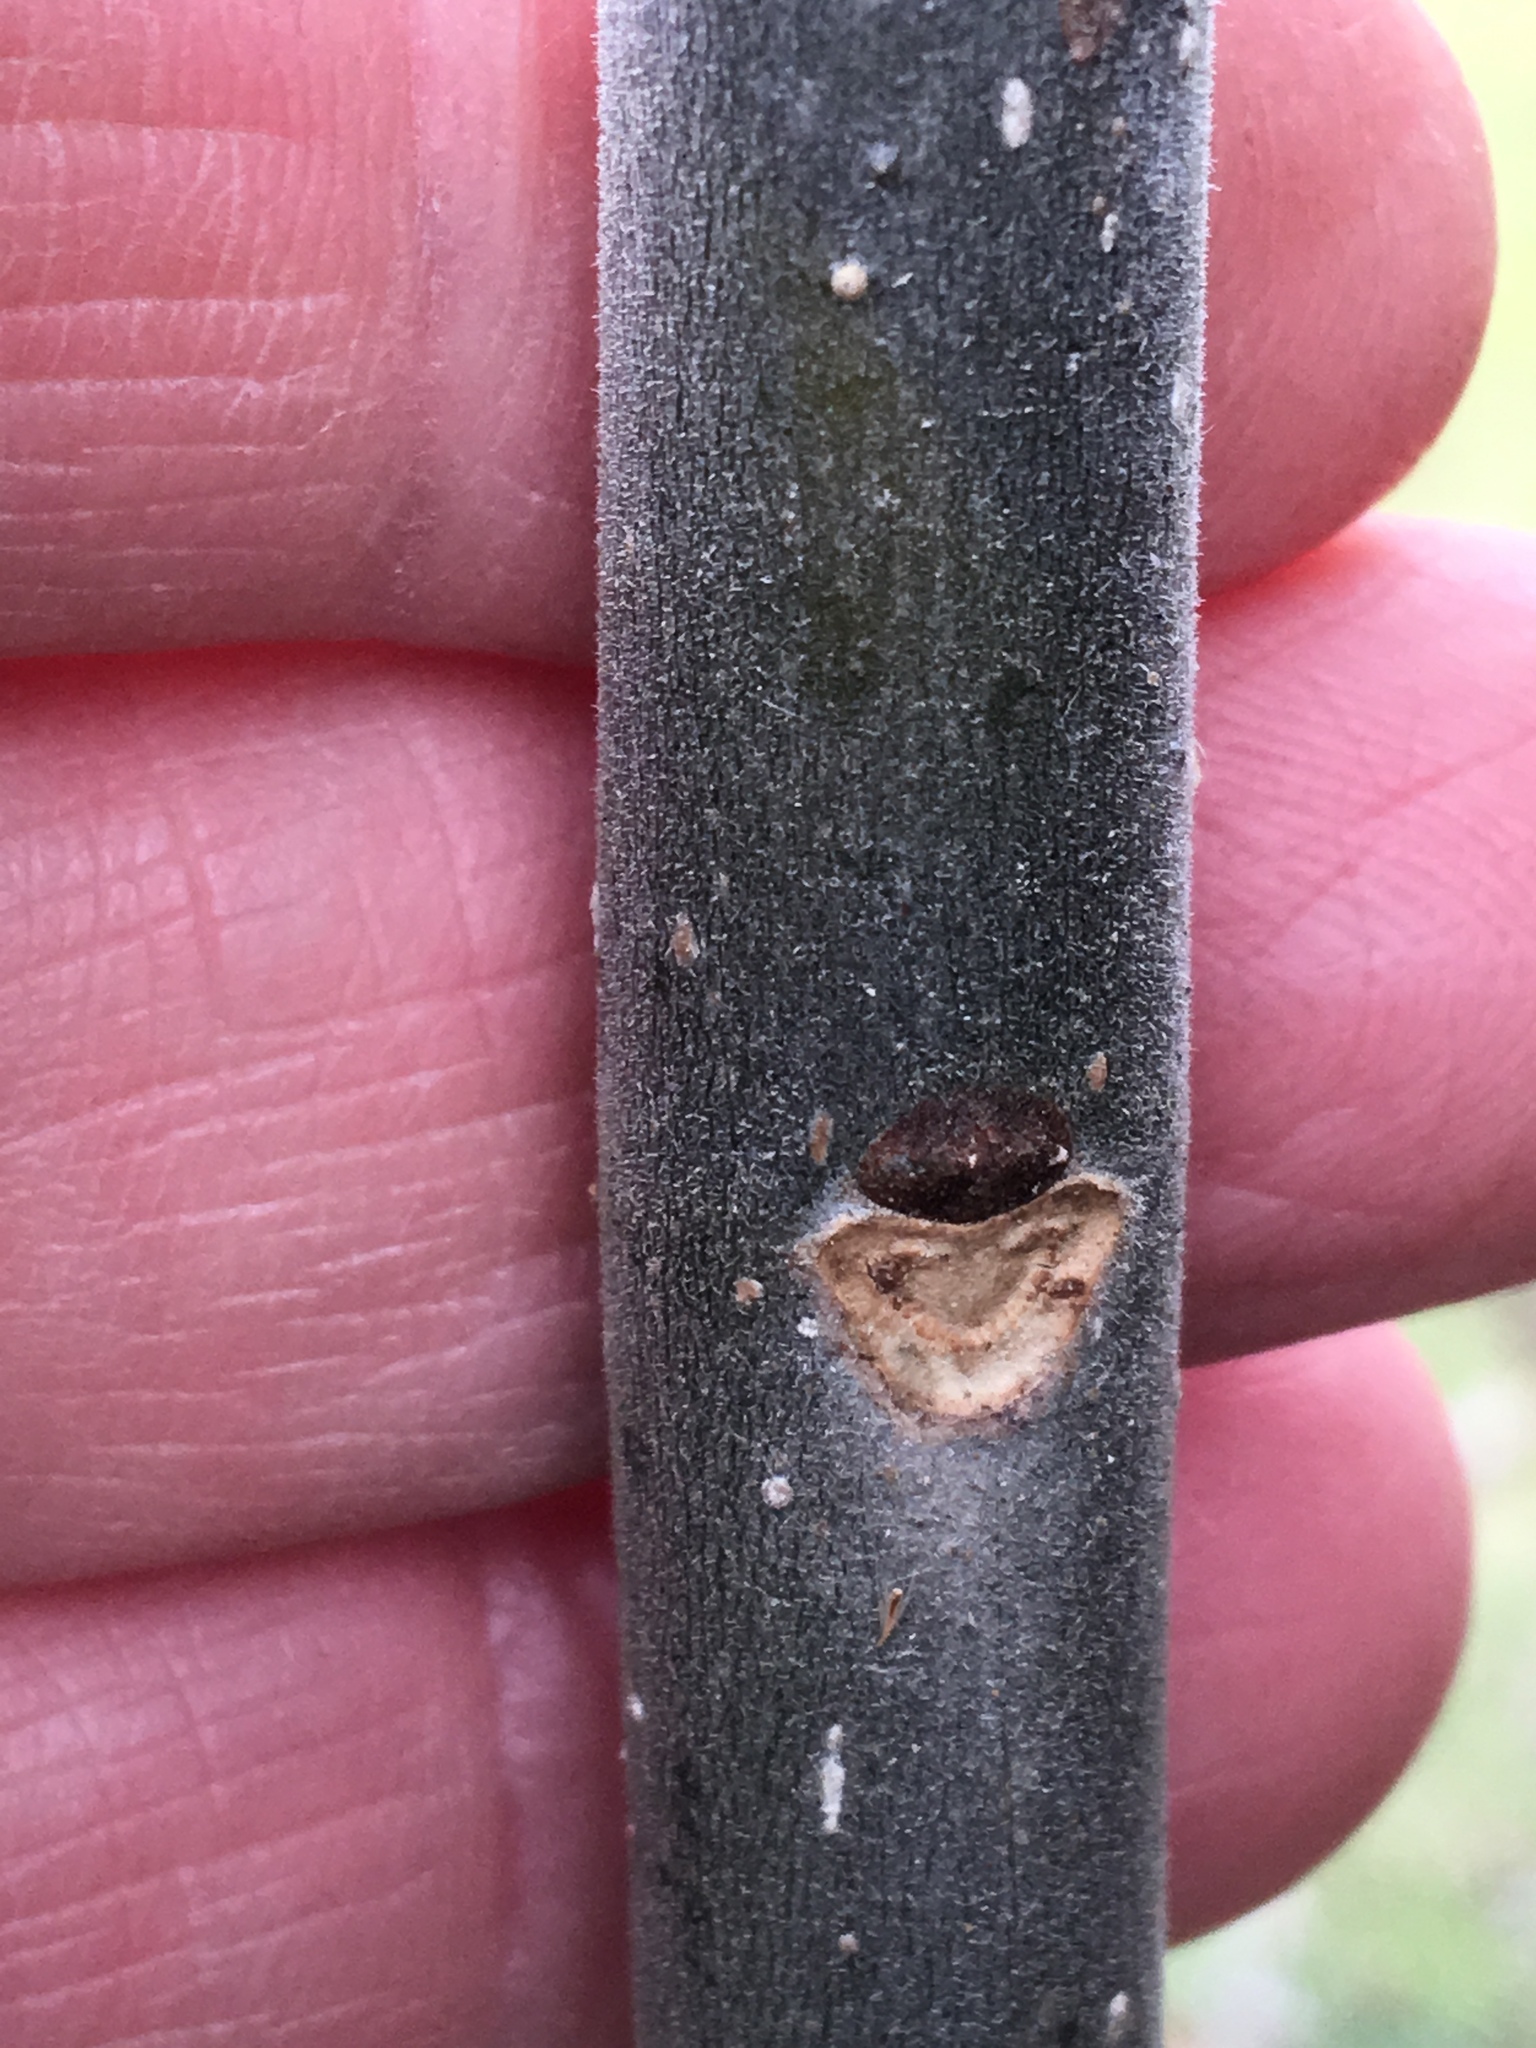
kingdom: Plantae
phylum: Tracheophyta
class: Magnoliopsida
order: Lamiales
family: Oleaceae
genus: Fraxinus
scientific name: Fraxinus pennsylvanica
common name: Green ash
